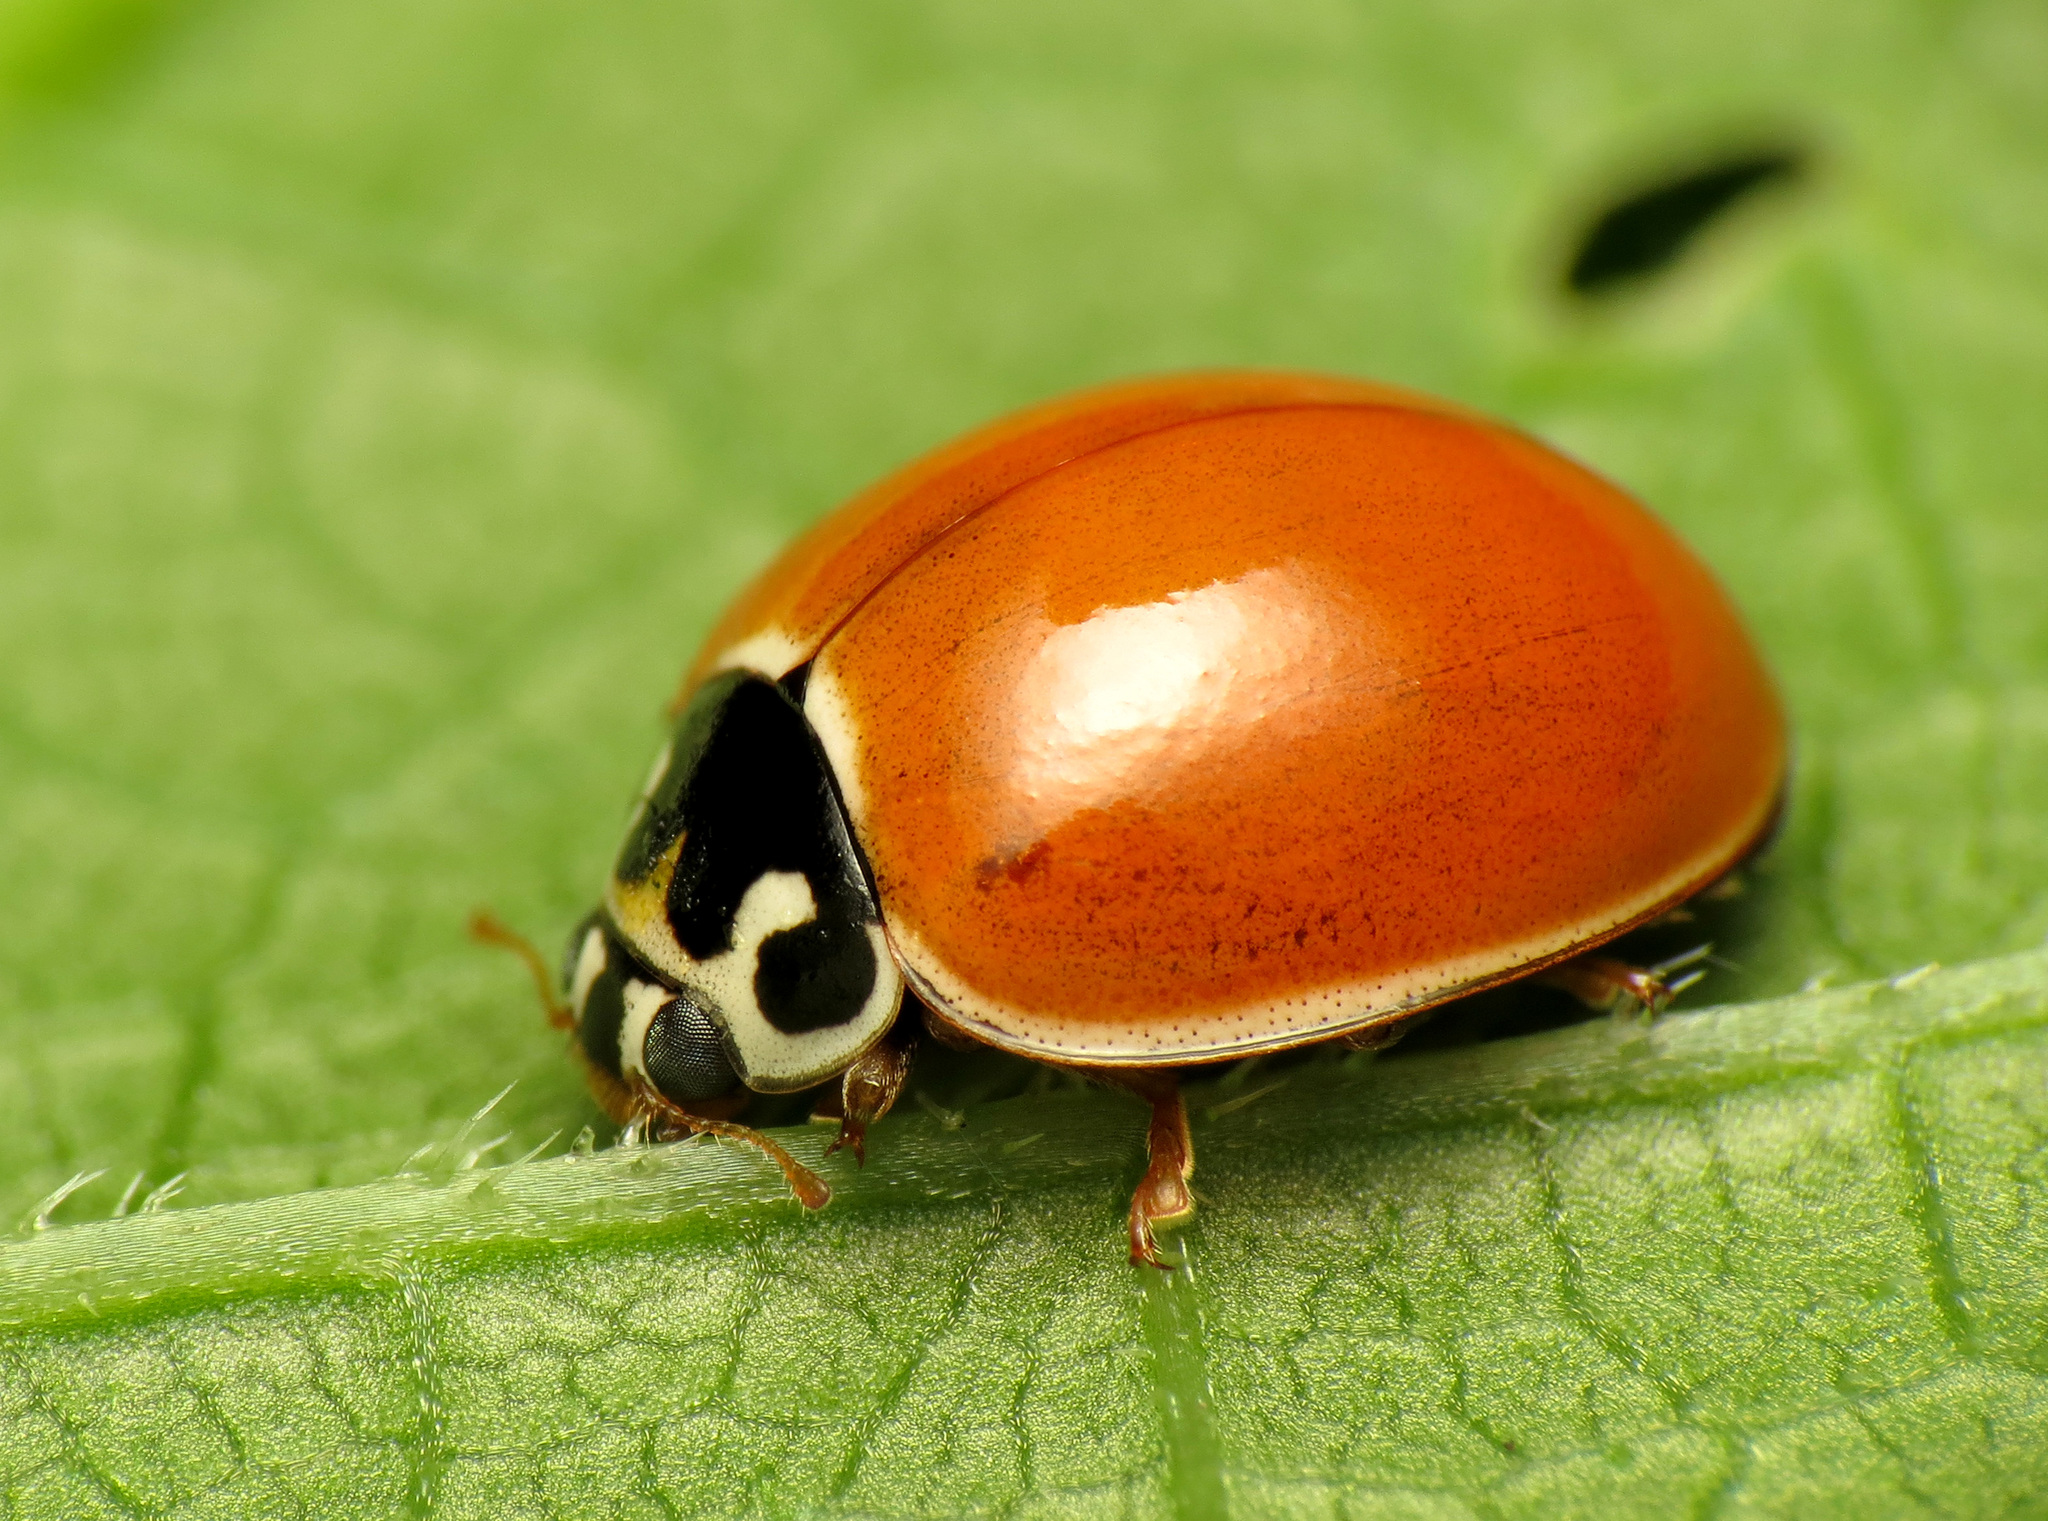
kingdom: Animalia
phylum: Arthropoda
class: Insecta
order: Coleoptera
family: Coccinellidae
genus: Cycloneda
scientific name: Cycloneda munda
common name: Polished lady beetle
